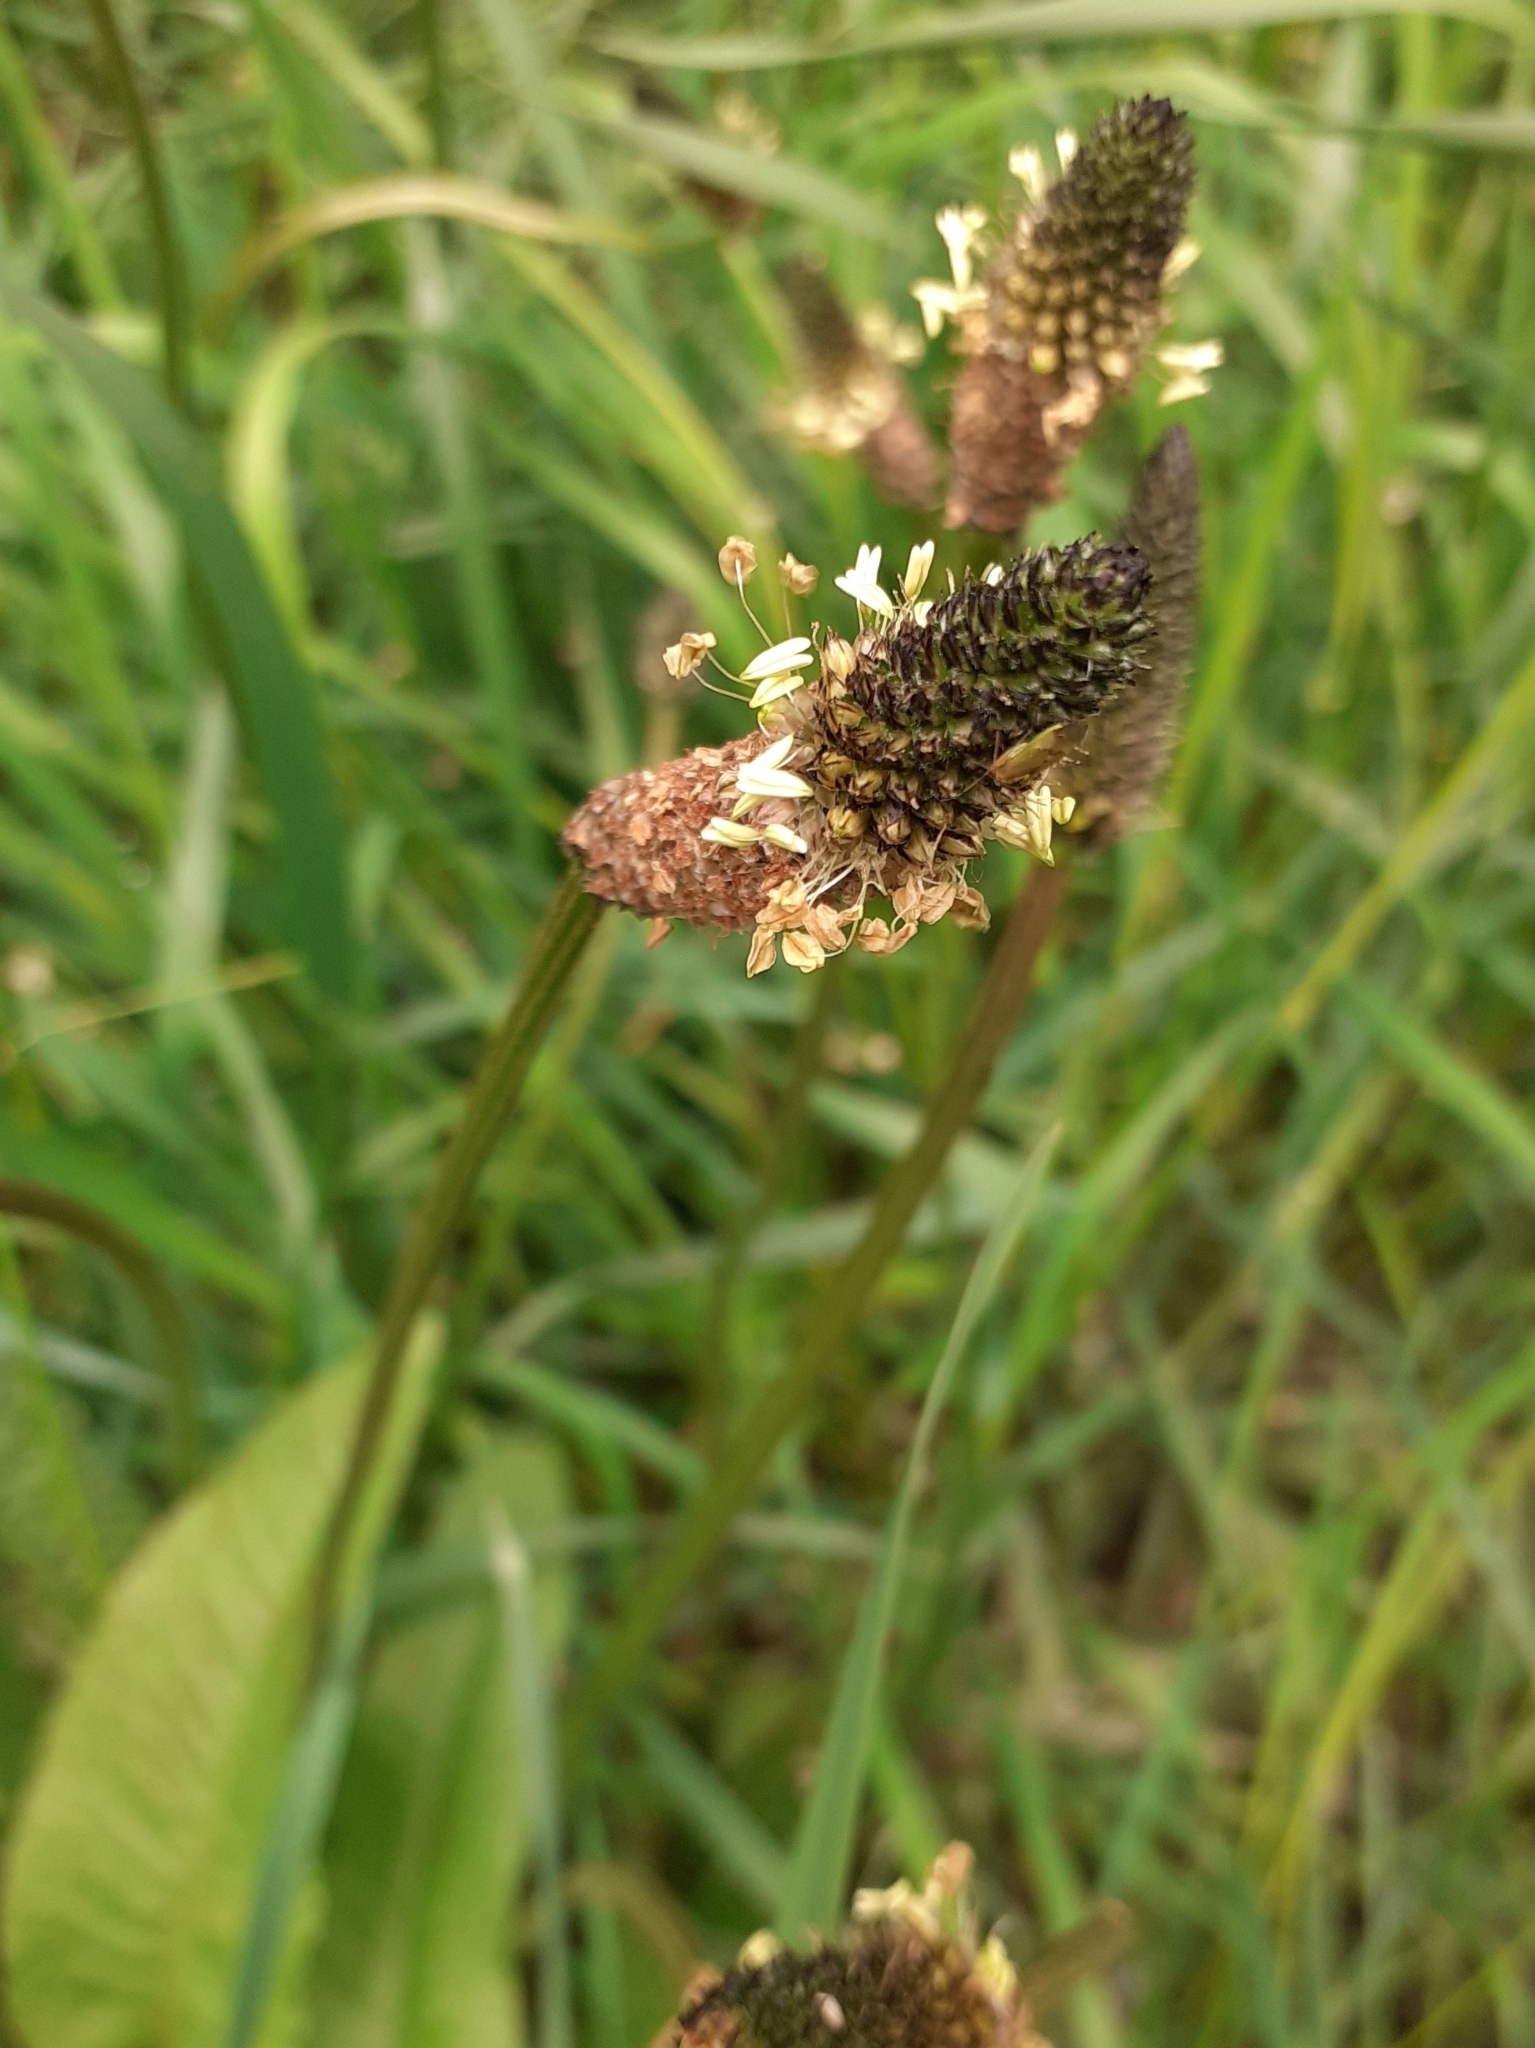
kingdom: Plantae
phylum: Tracheophyta
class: Magnoliopsida
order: Lamiales
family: Plantaginaceae
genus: Plantago
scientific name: Plantago lanceolata
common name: Ribwort plantain
